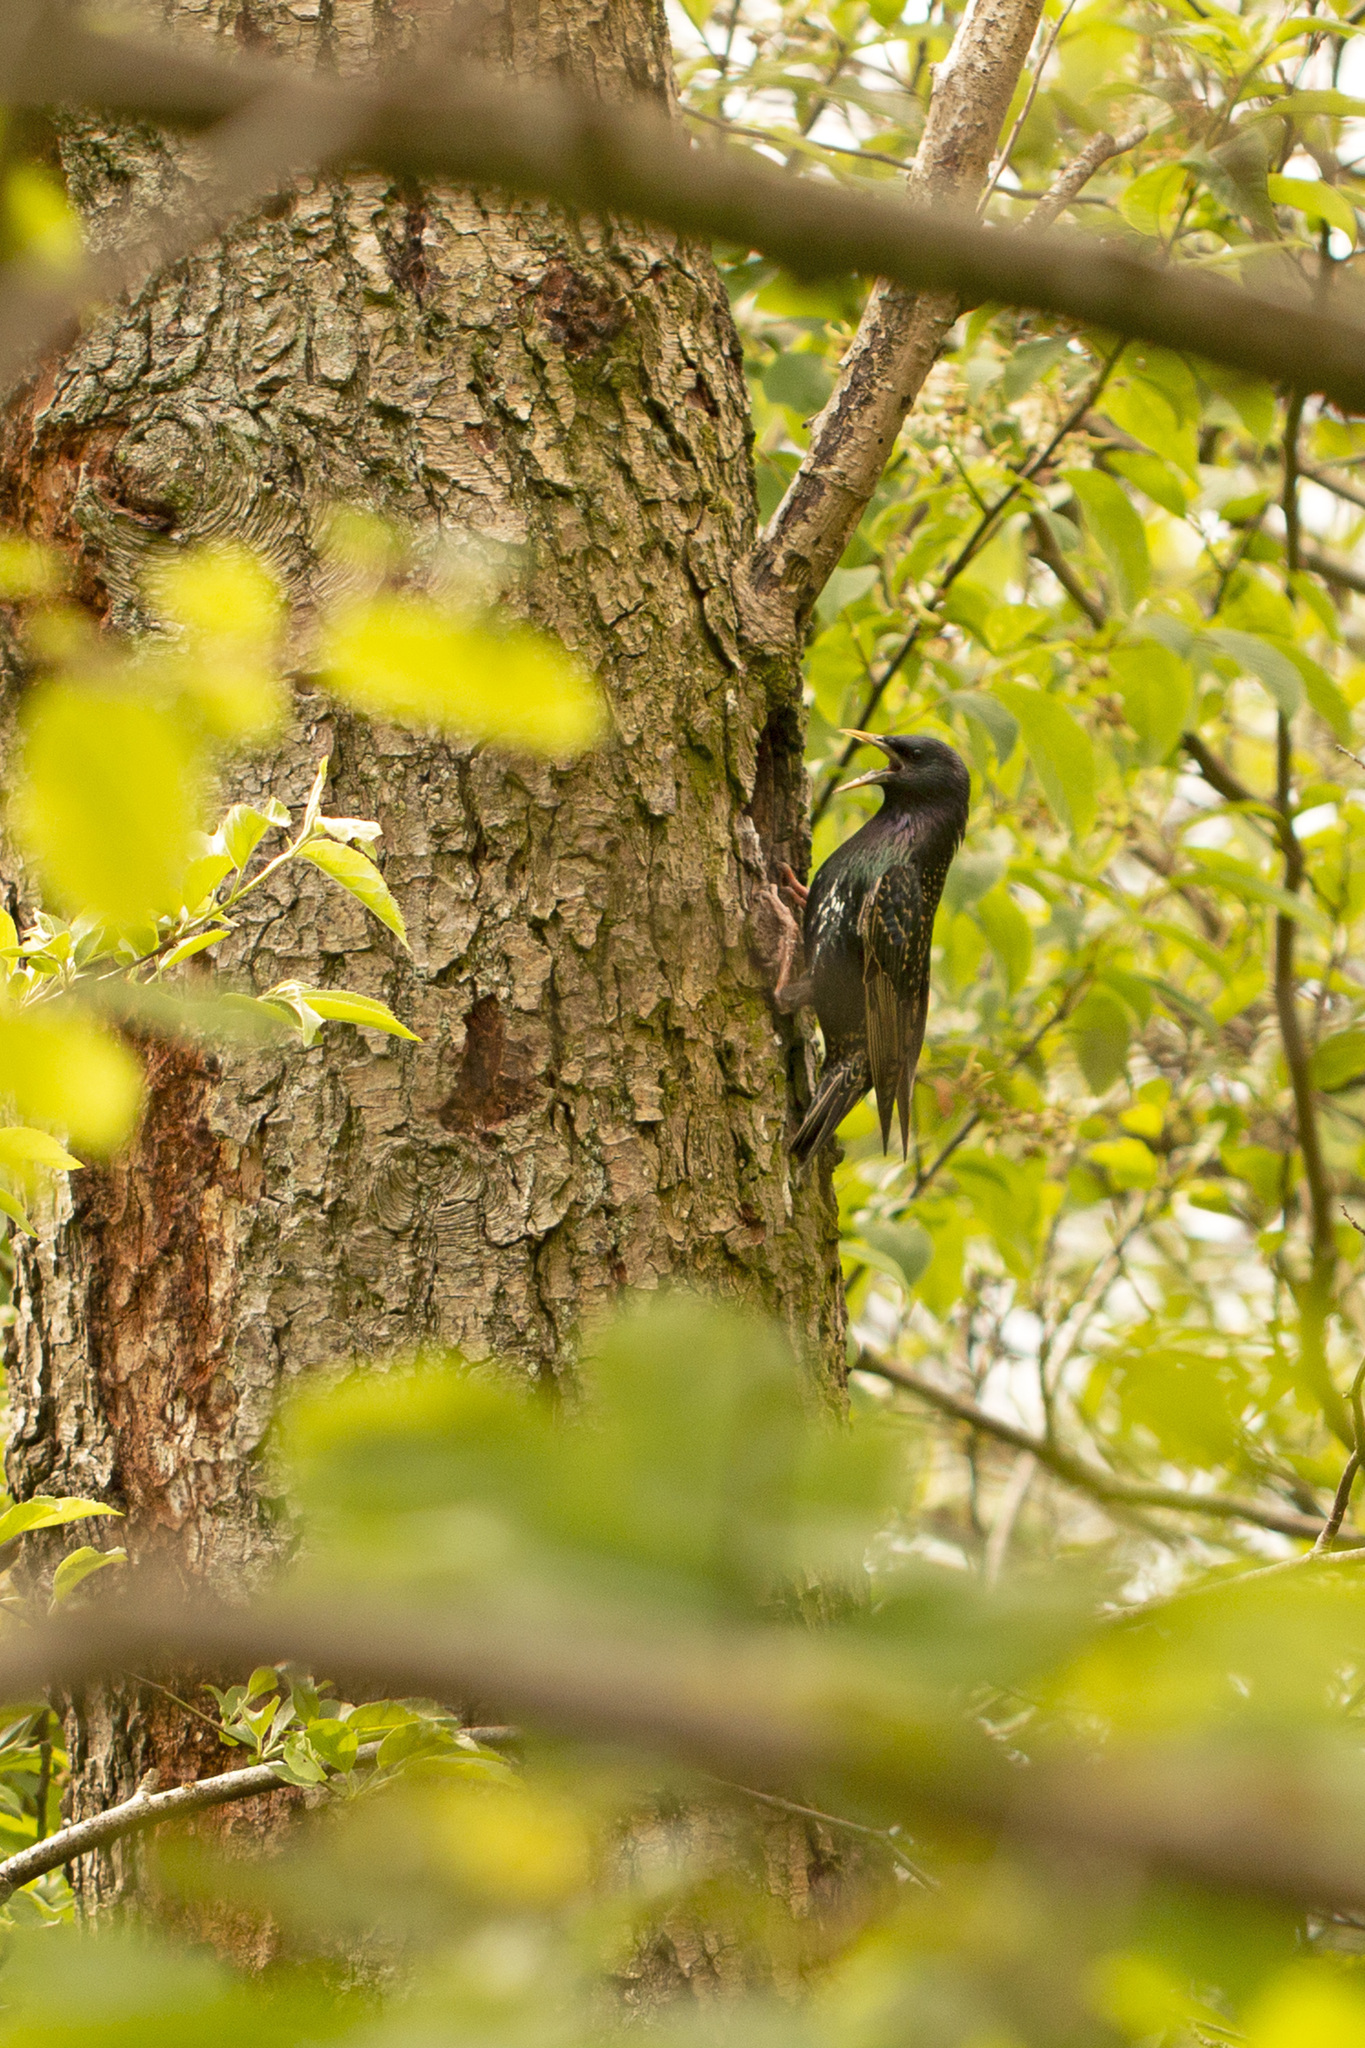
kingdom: Animalia
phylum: Chordata
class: Aves
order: Passeriformes
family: Sturnidae
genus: Sturnus
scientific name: Sturnus vulgaris
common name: Common starling
